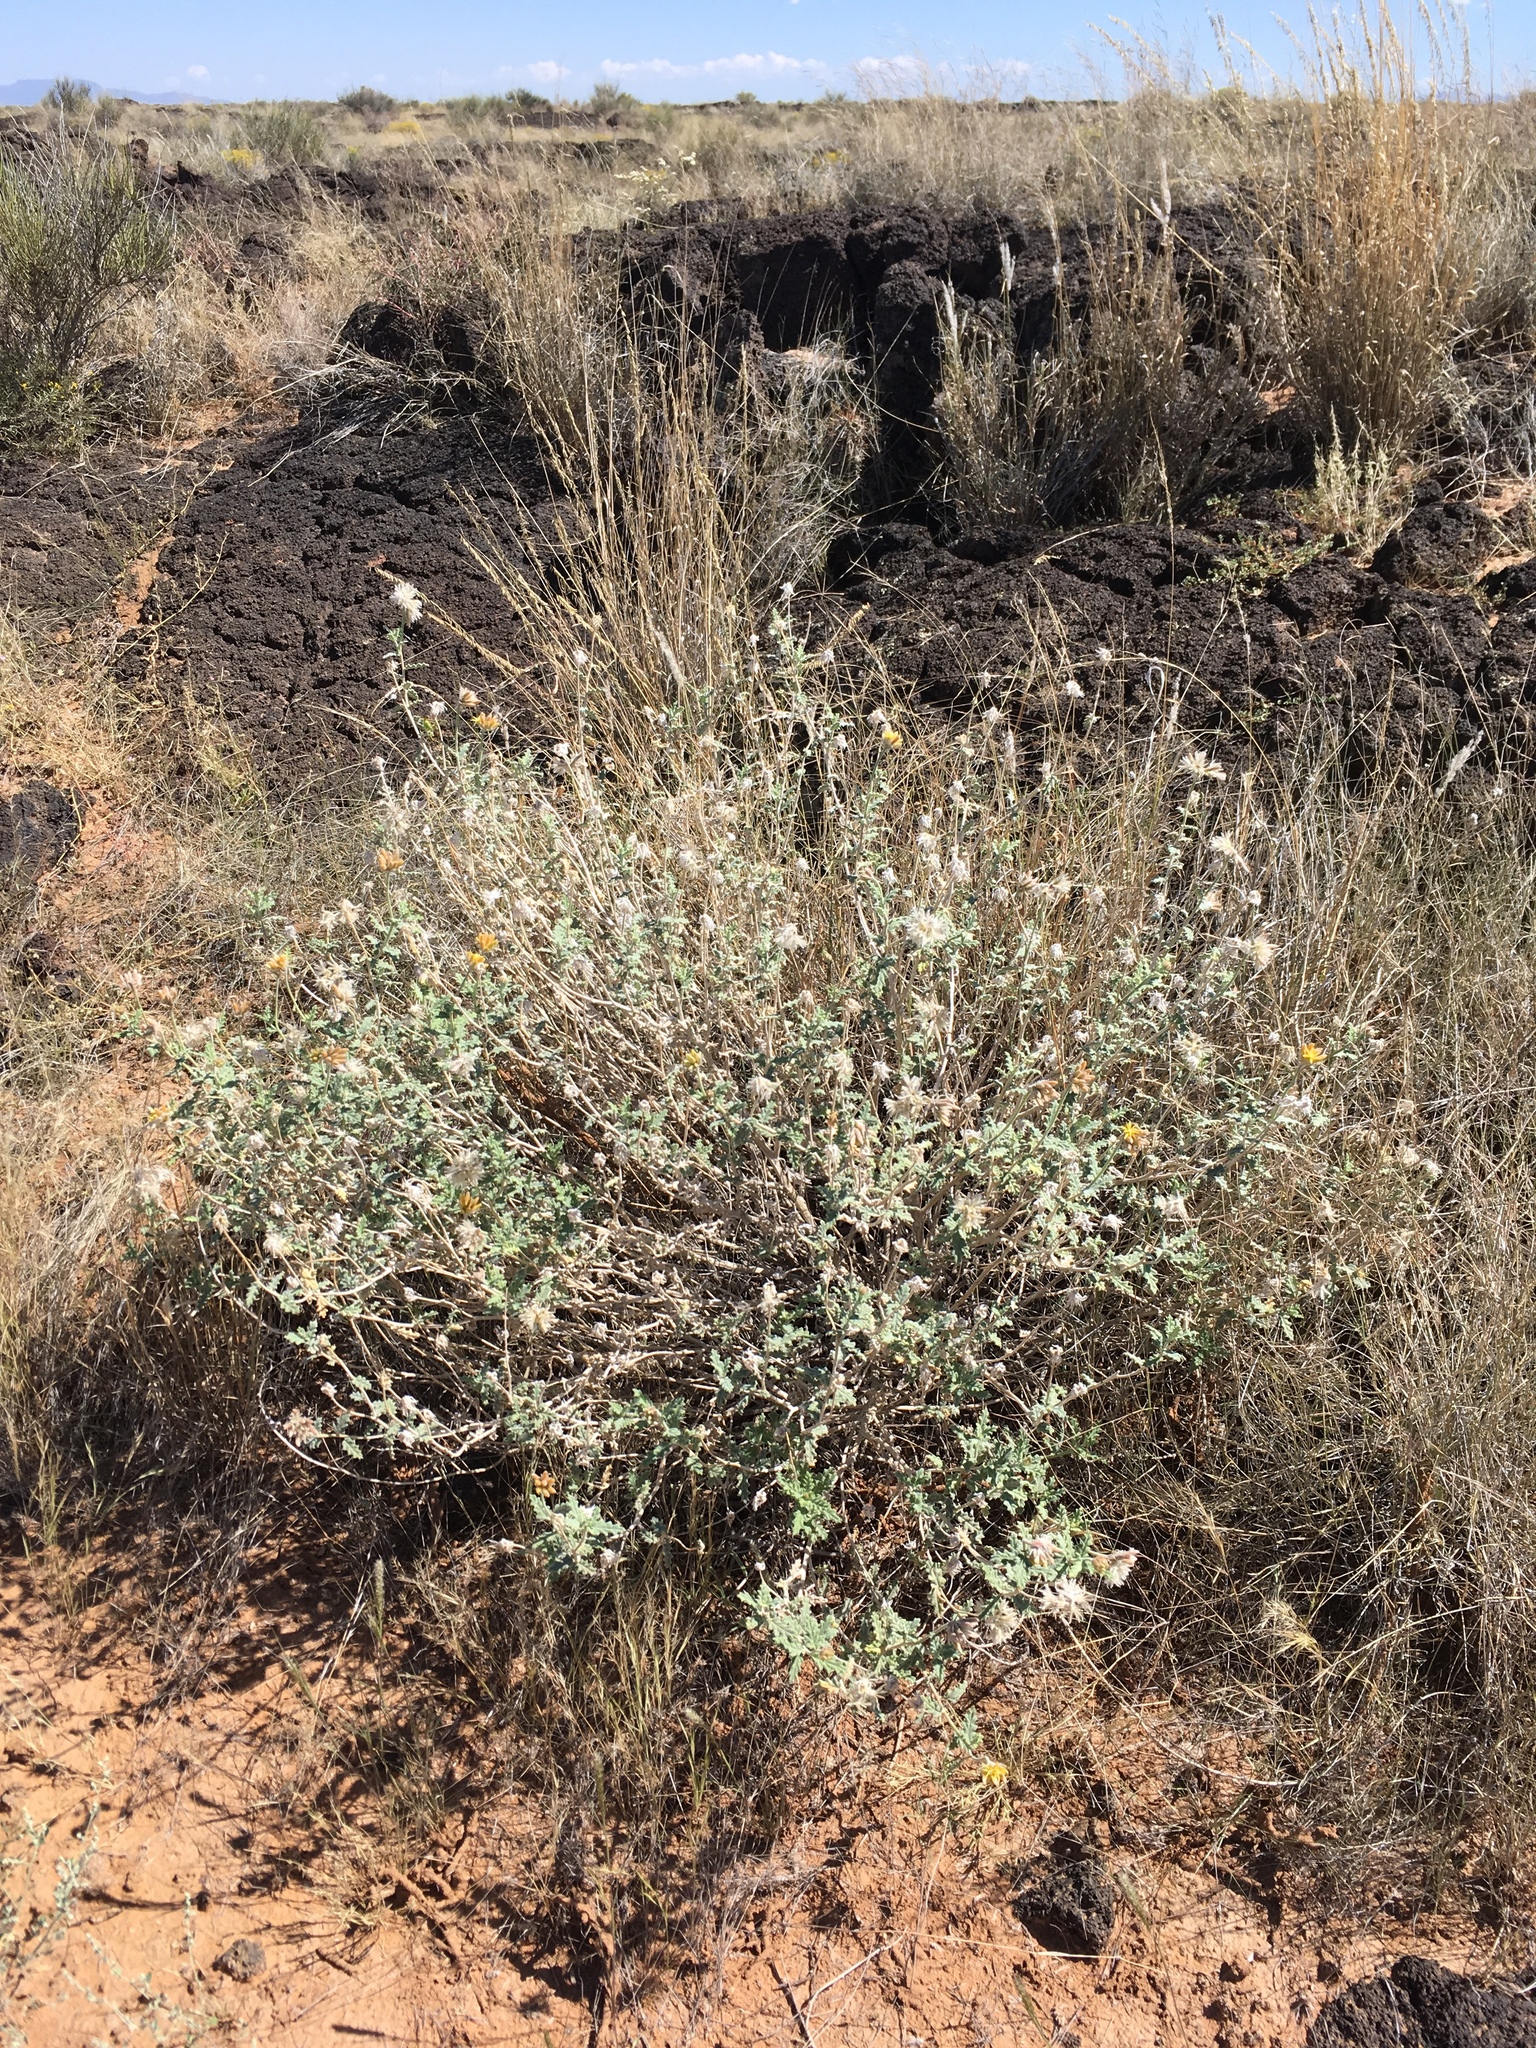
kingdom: Plantae
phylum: Tracheophyta
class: Magnoliopsida
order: Cornales
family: Loasaceae
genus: Cevallia
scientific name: Cevallia sinuata
